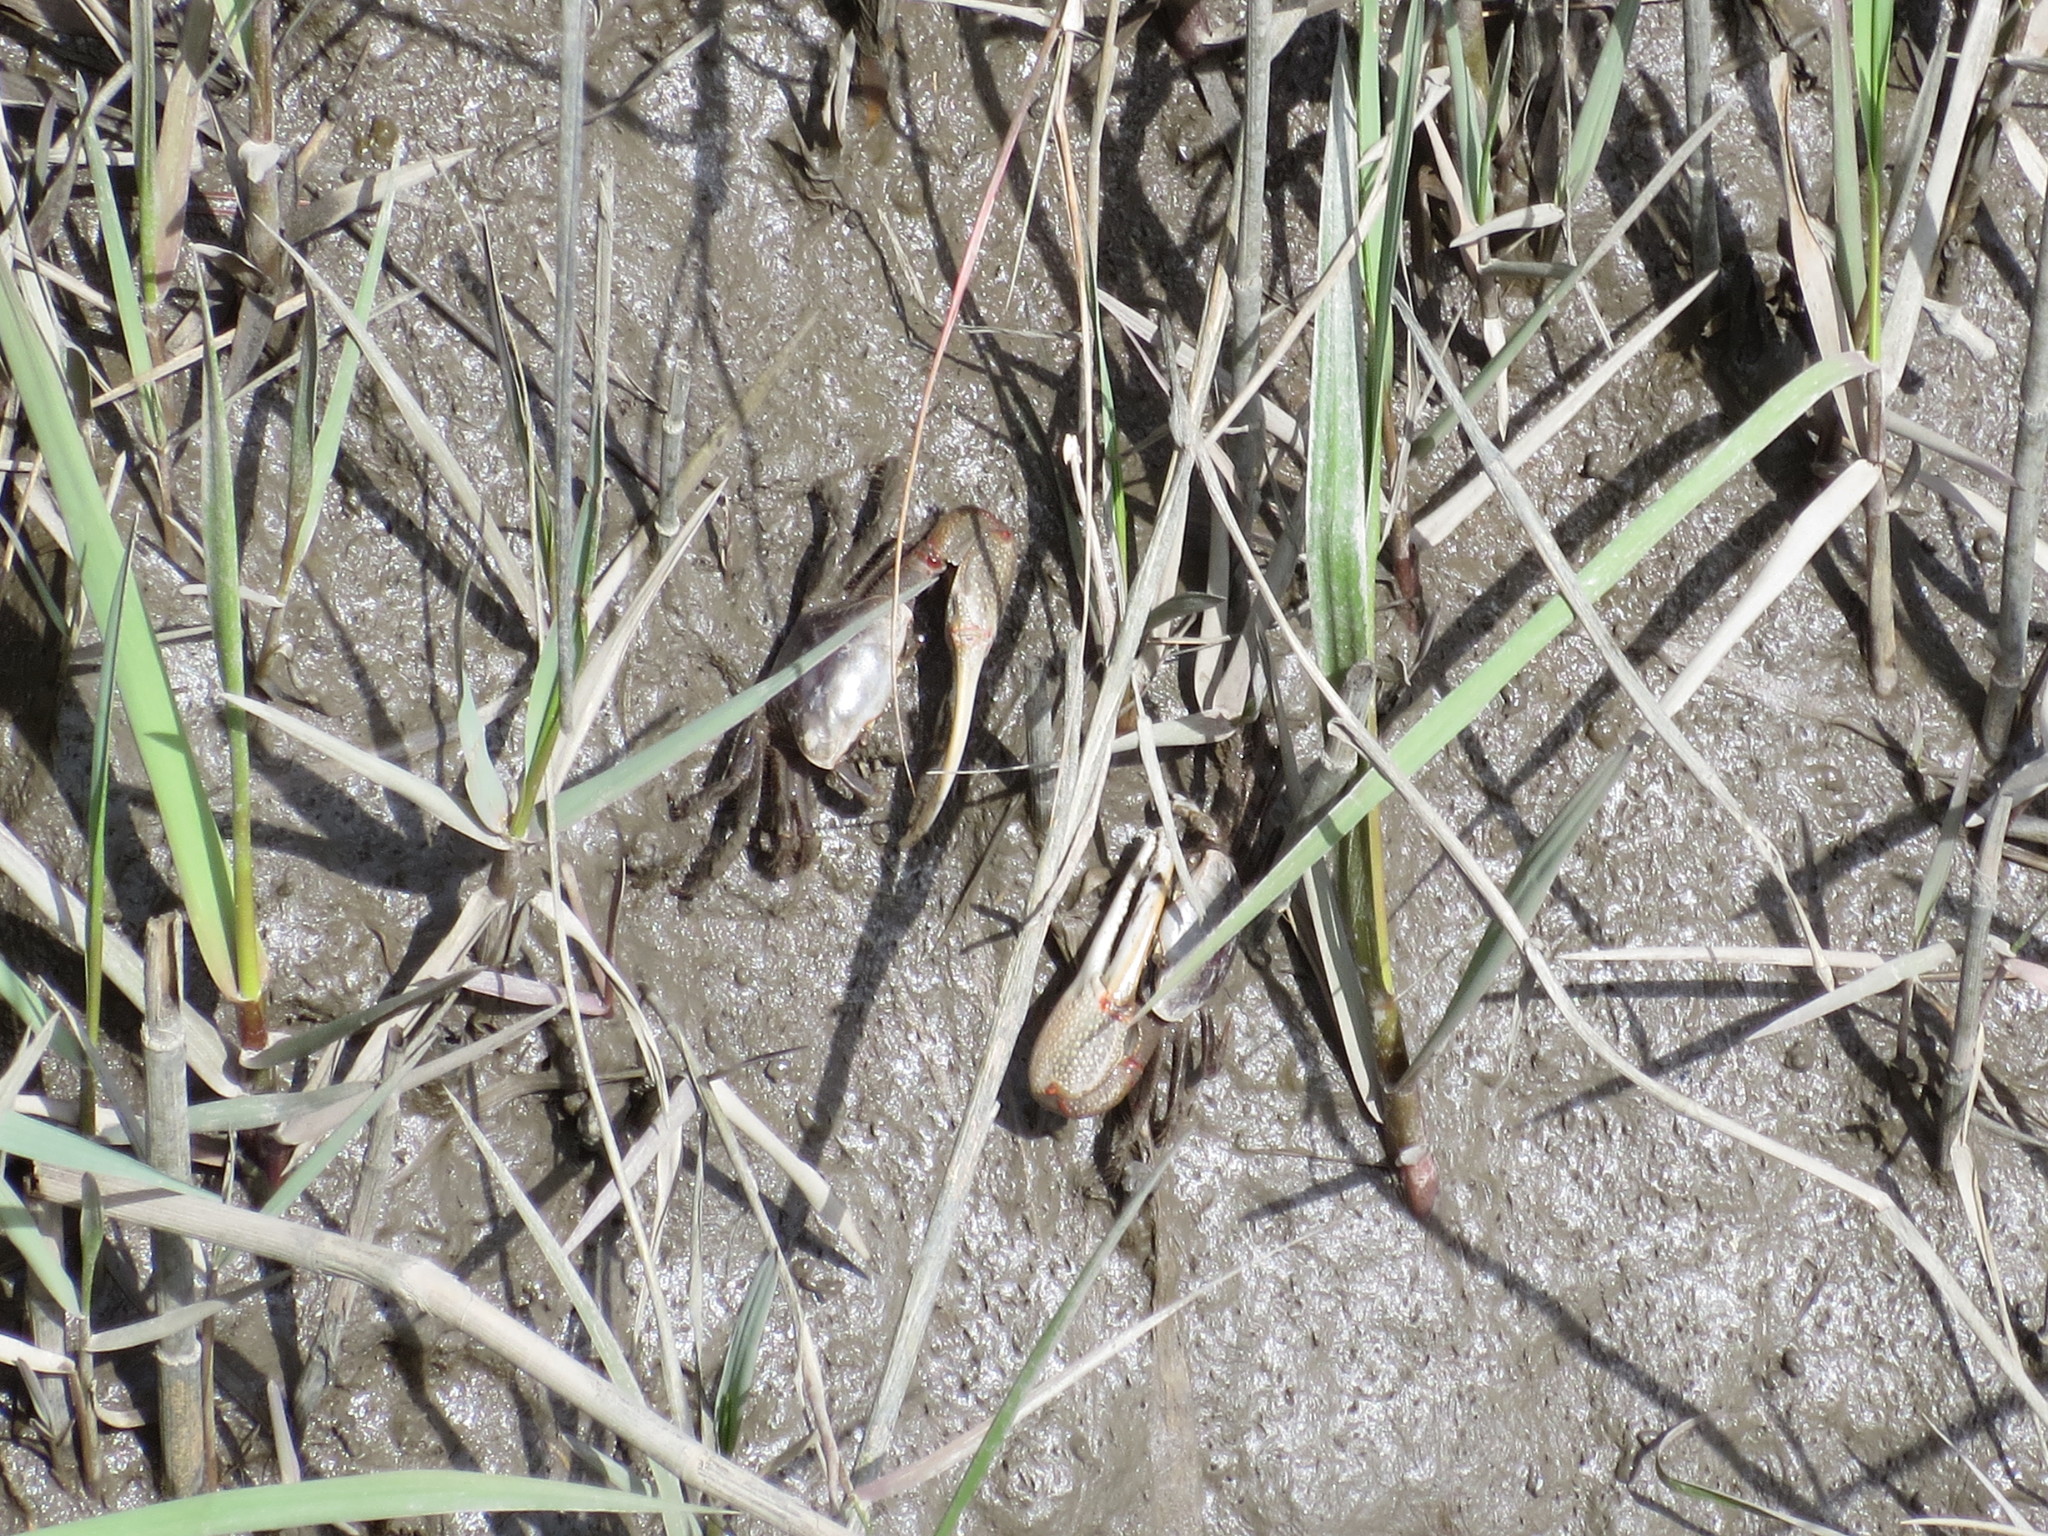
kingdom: Animalia
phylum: Arthropoda
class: Malacostraca
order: Decapoda
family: Ocypodidae
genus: Minuca
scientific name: Minuca minax
